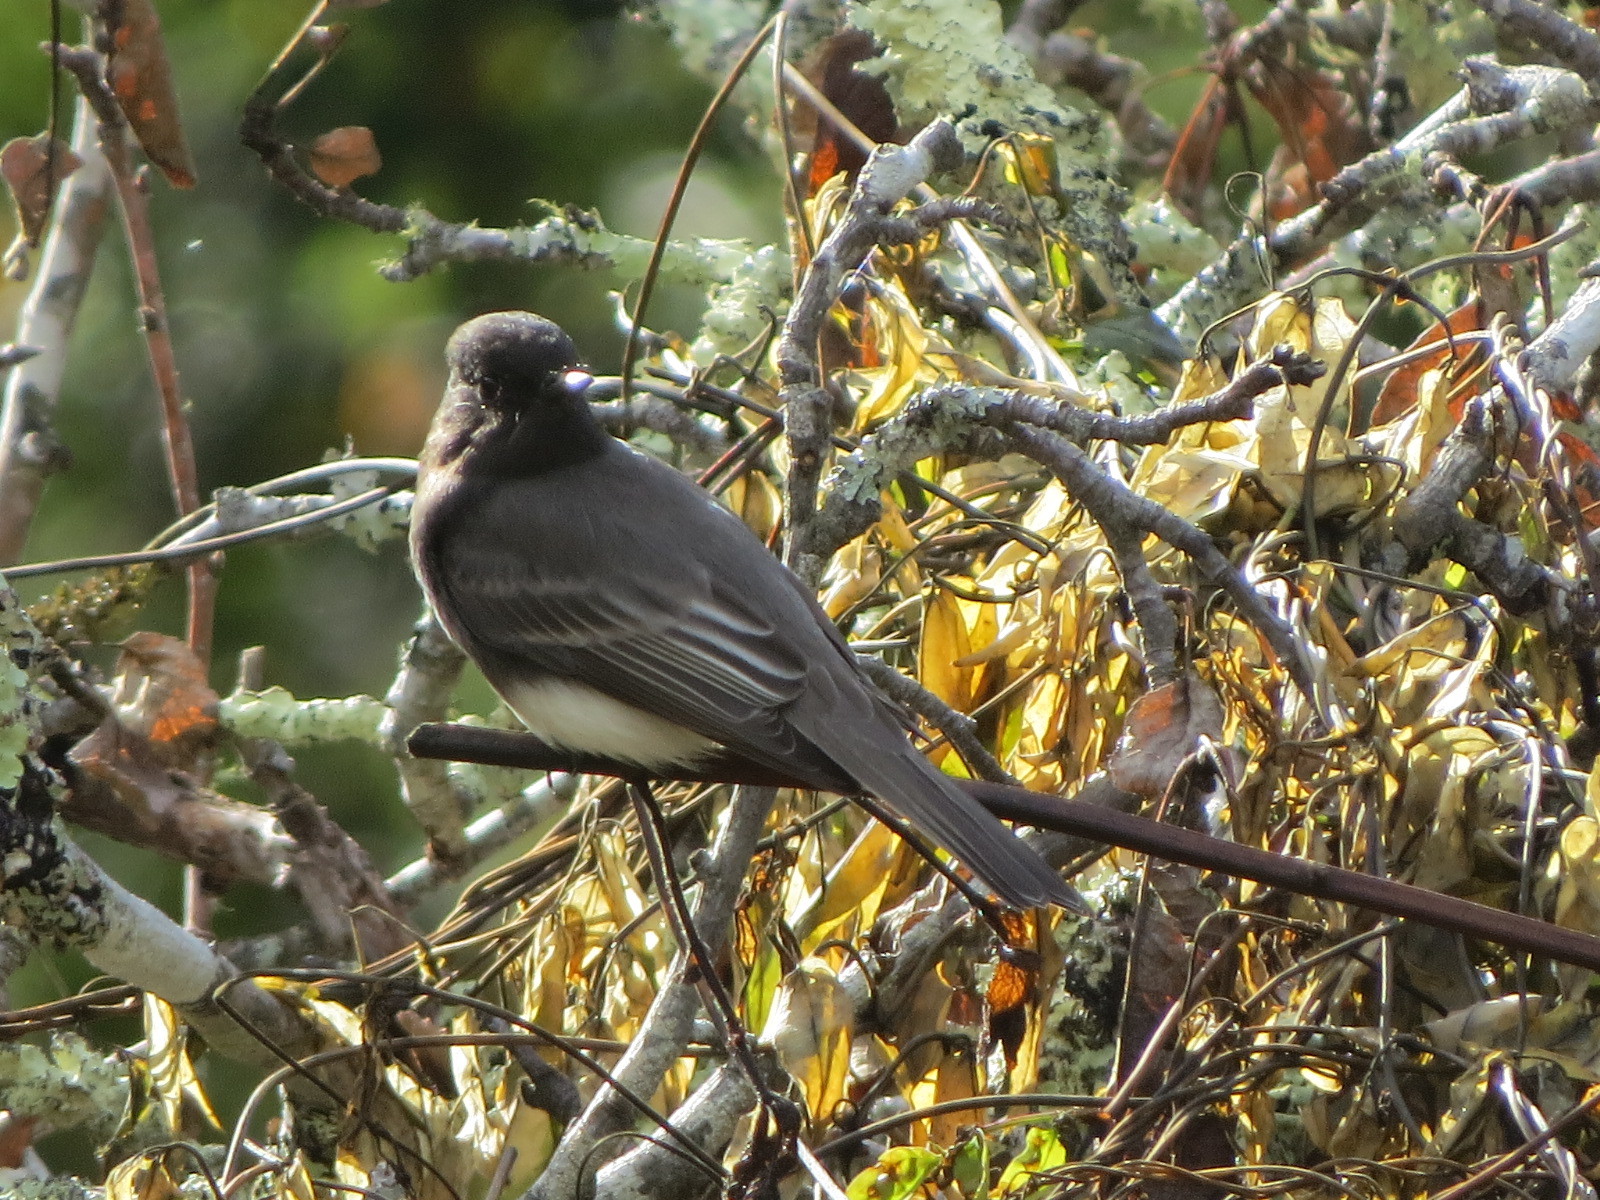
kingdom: Animalia
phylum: Chordata
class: Aves
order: Passeriformes
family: Tyrannidae
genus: Sayornis
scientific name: Sayornis nigricans
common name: Black phoebe
